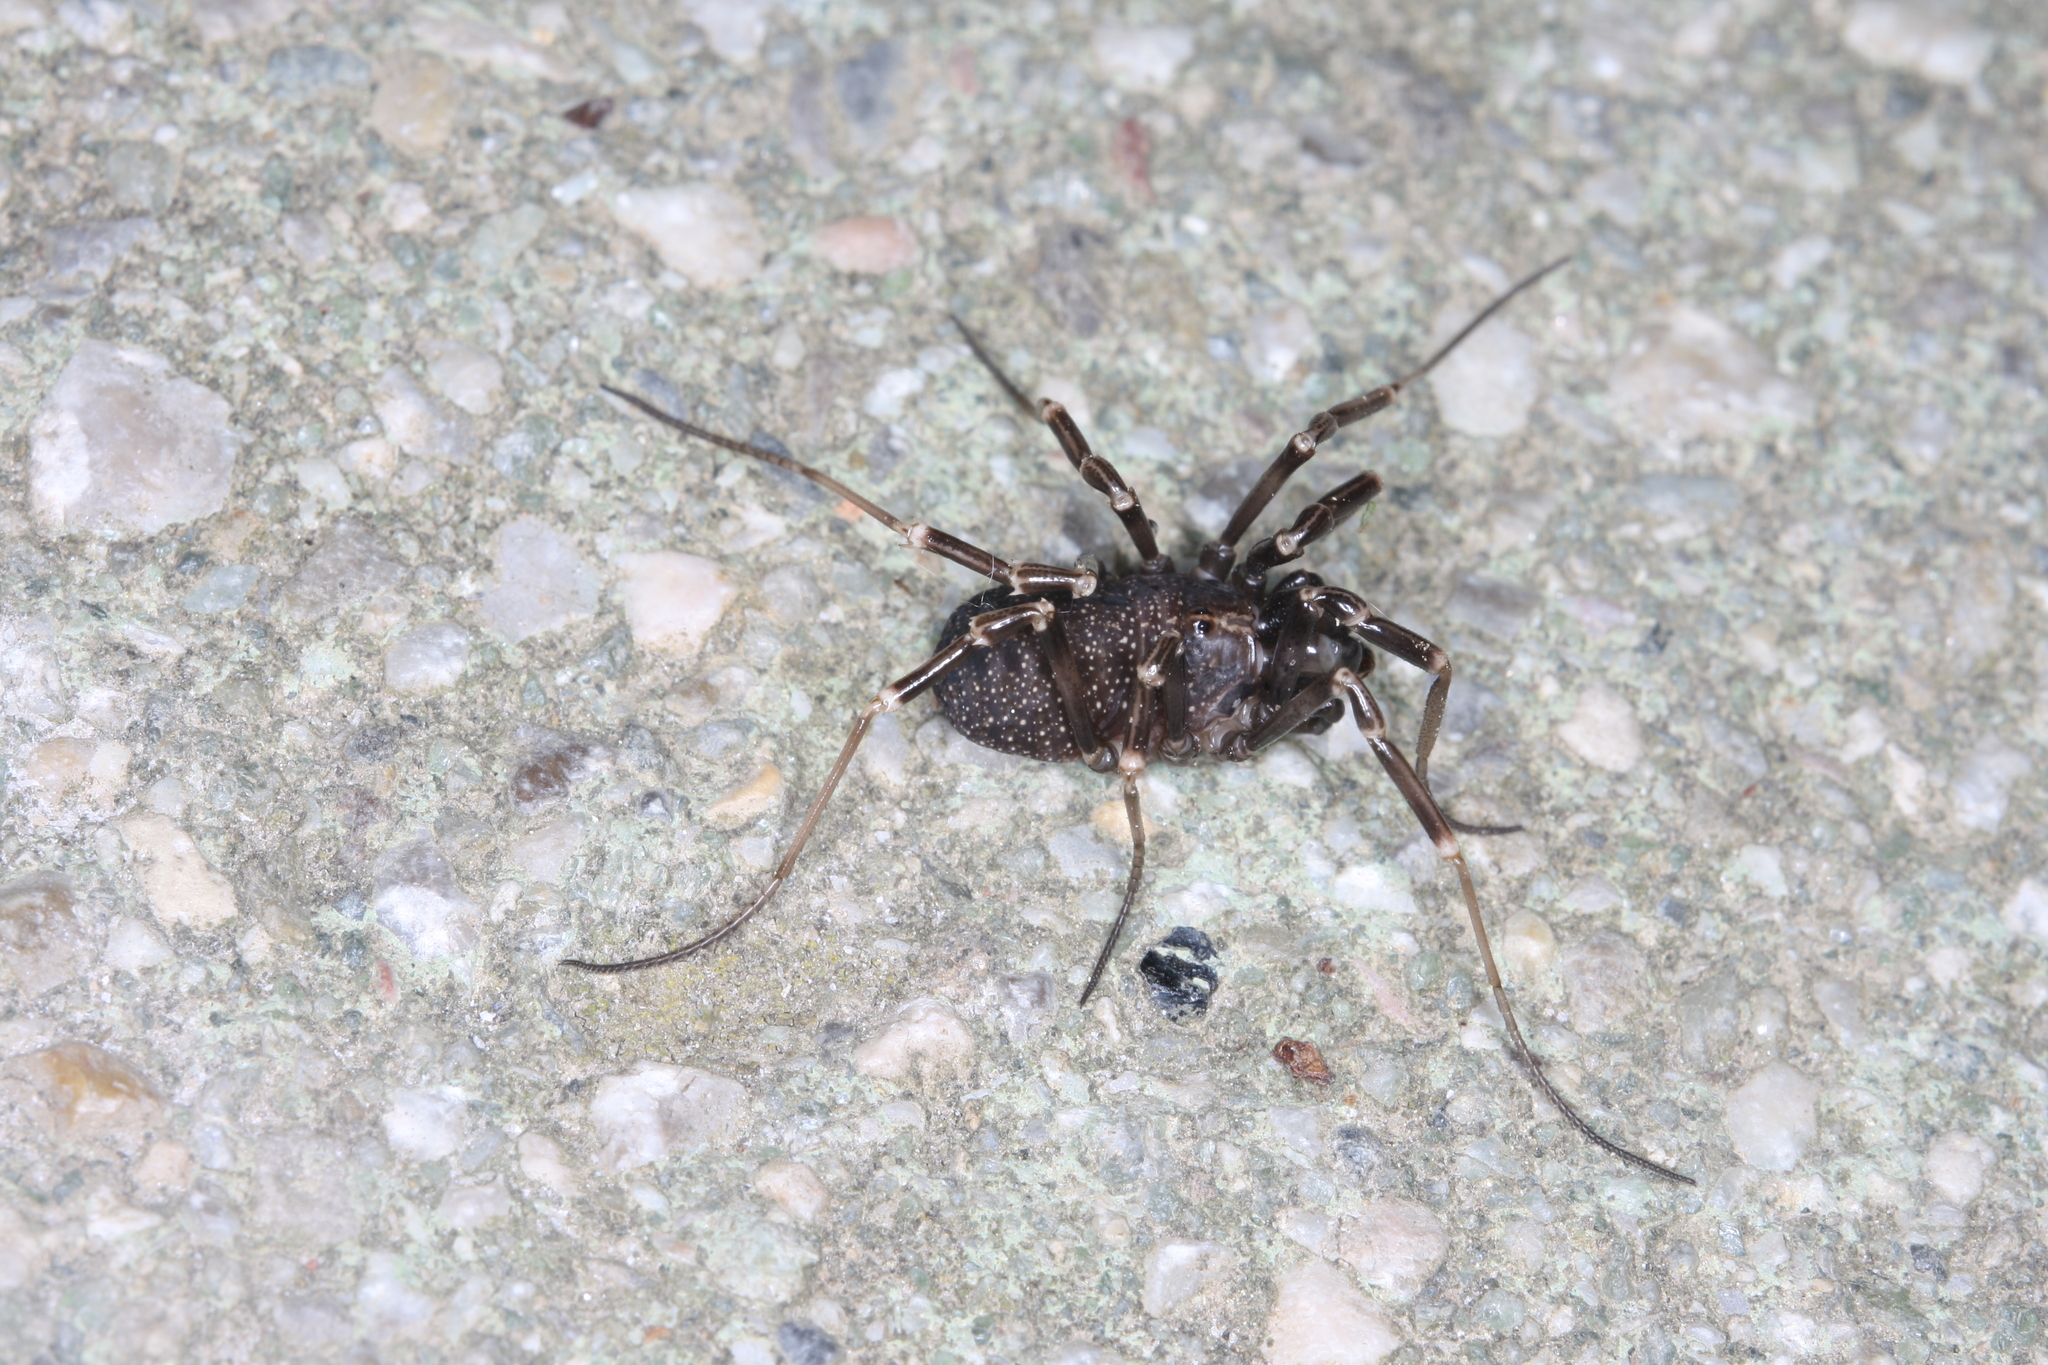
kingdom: Animalia
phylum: Arthropoda
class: Arachnida
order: Opiliones
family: Phalangiidae
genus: Egaenus
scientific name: Egaenus convexus
